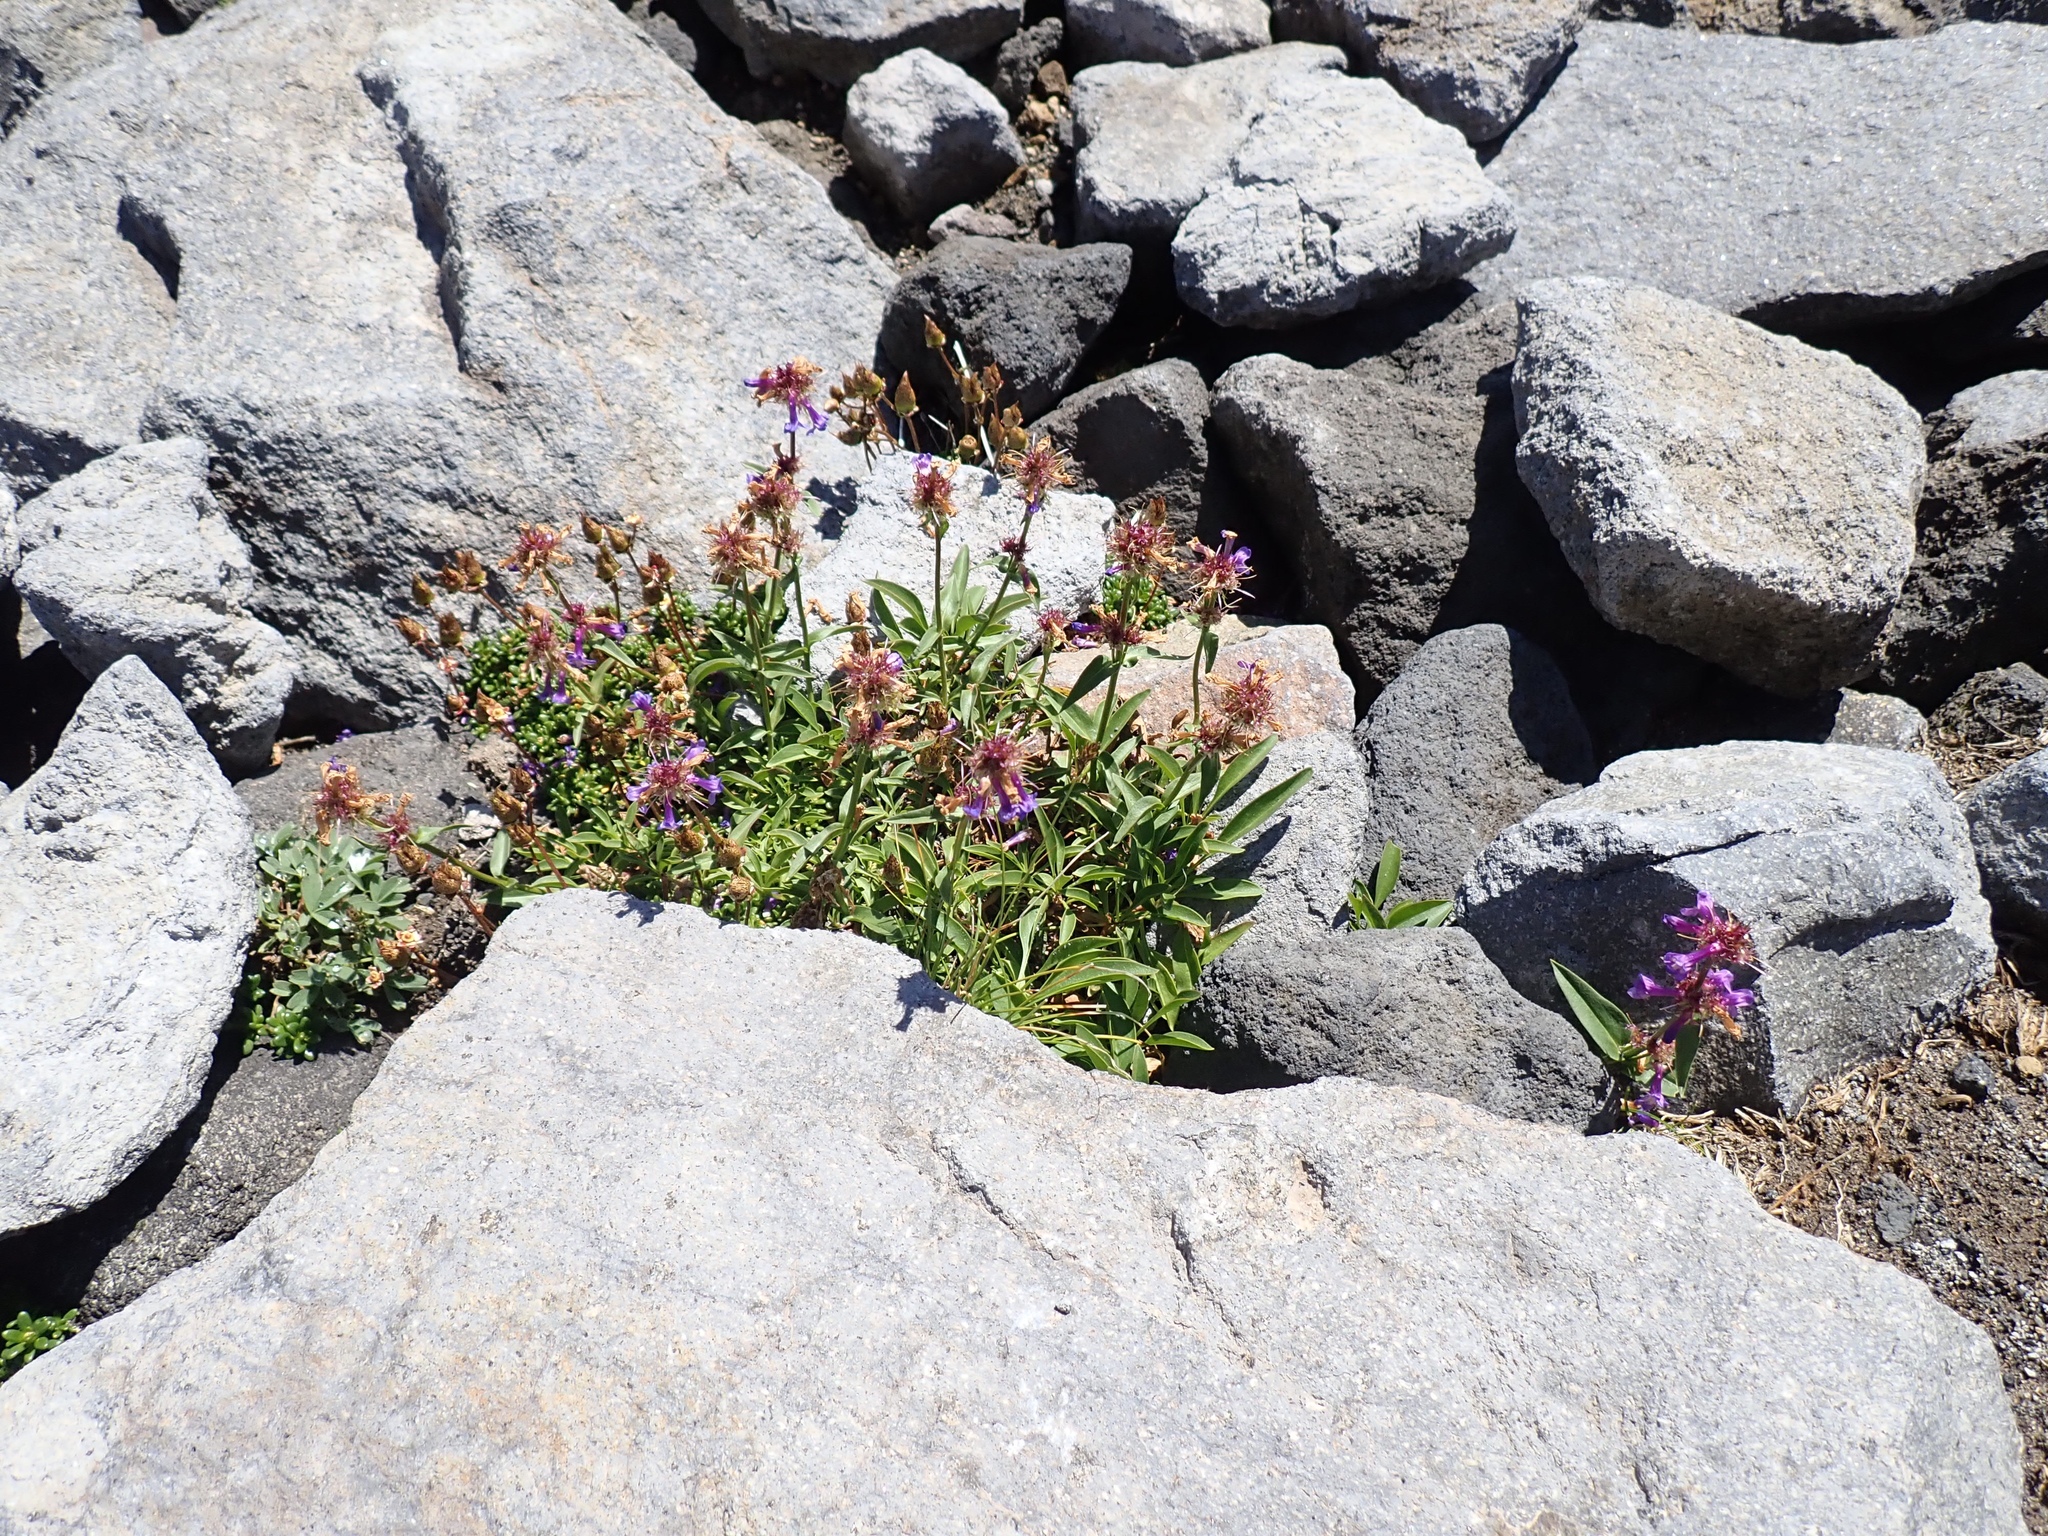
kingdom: Plantae
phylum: Tracheophyta
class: Magnoliopsida
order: Lamiales
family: Plantaginaceae
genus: Penstemon
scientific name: Penstemon procerus
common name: Small-flower penstemon
